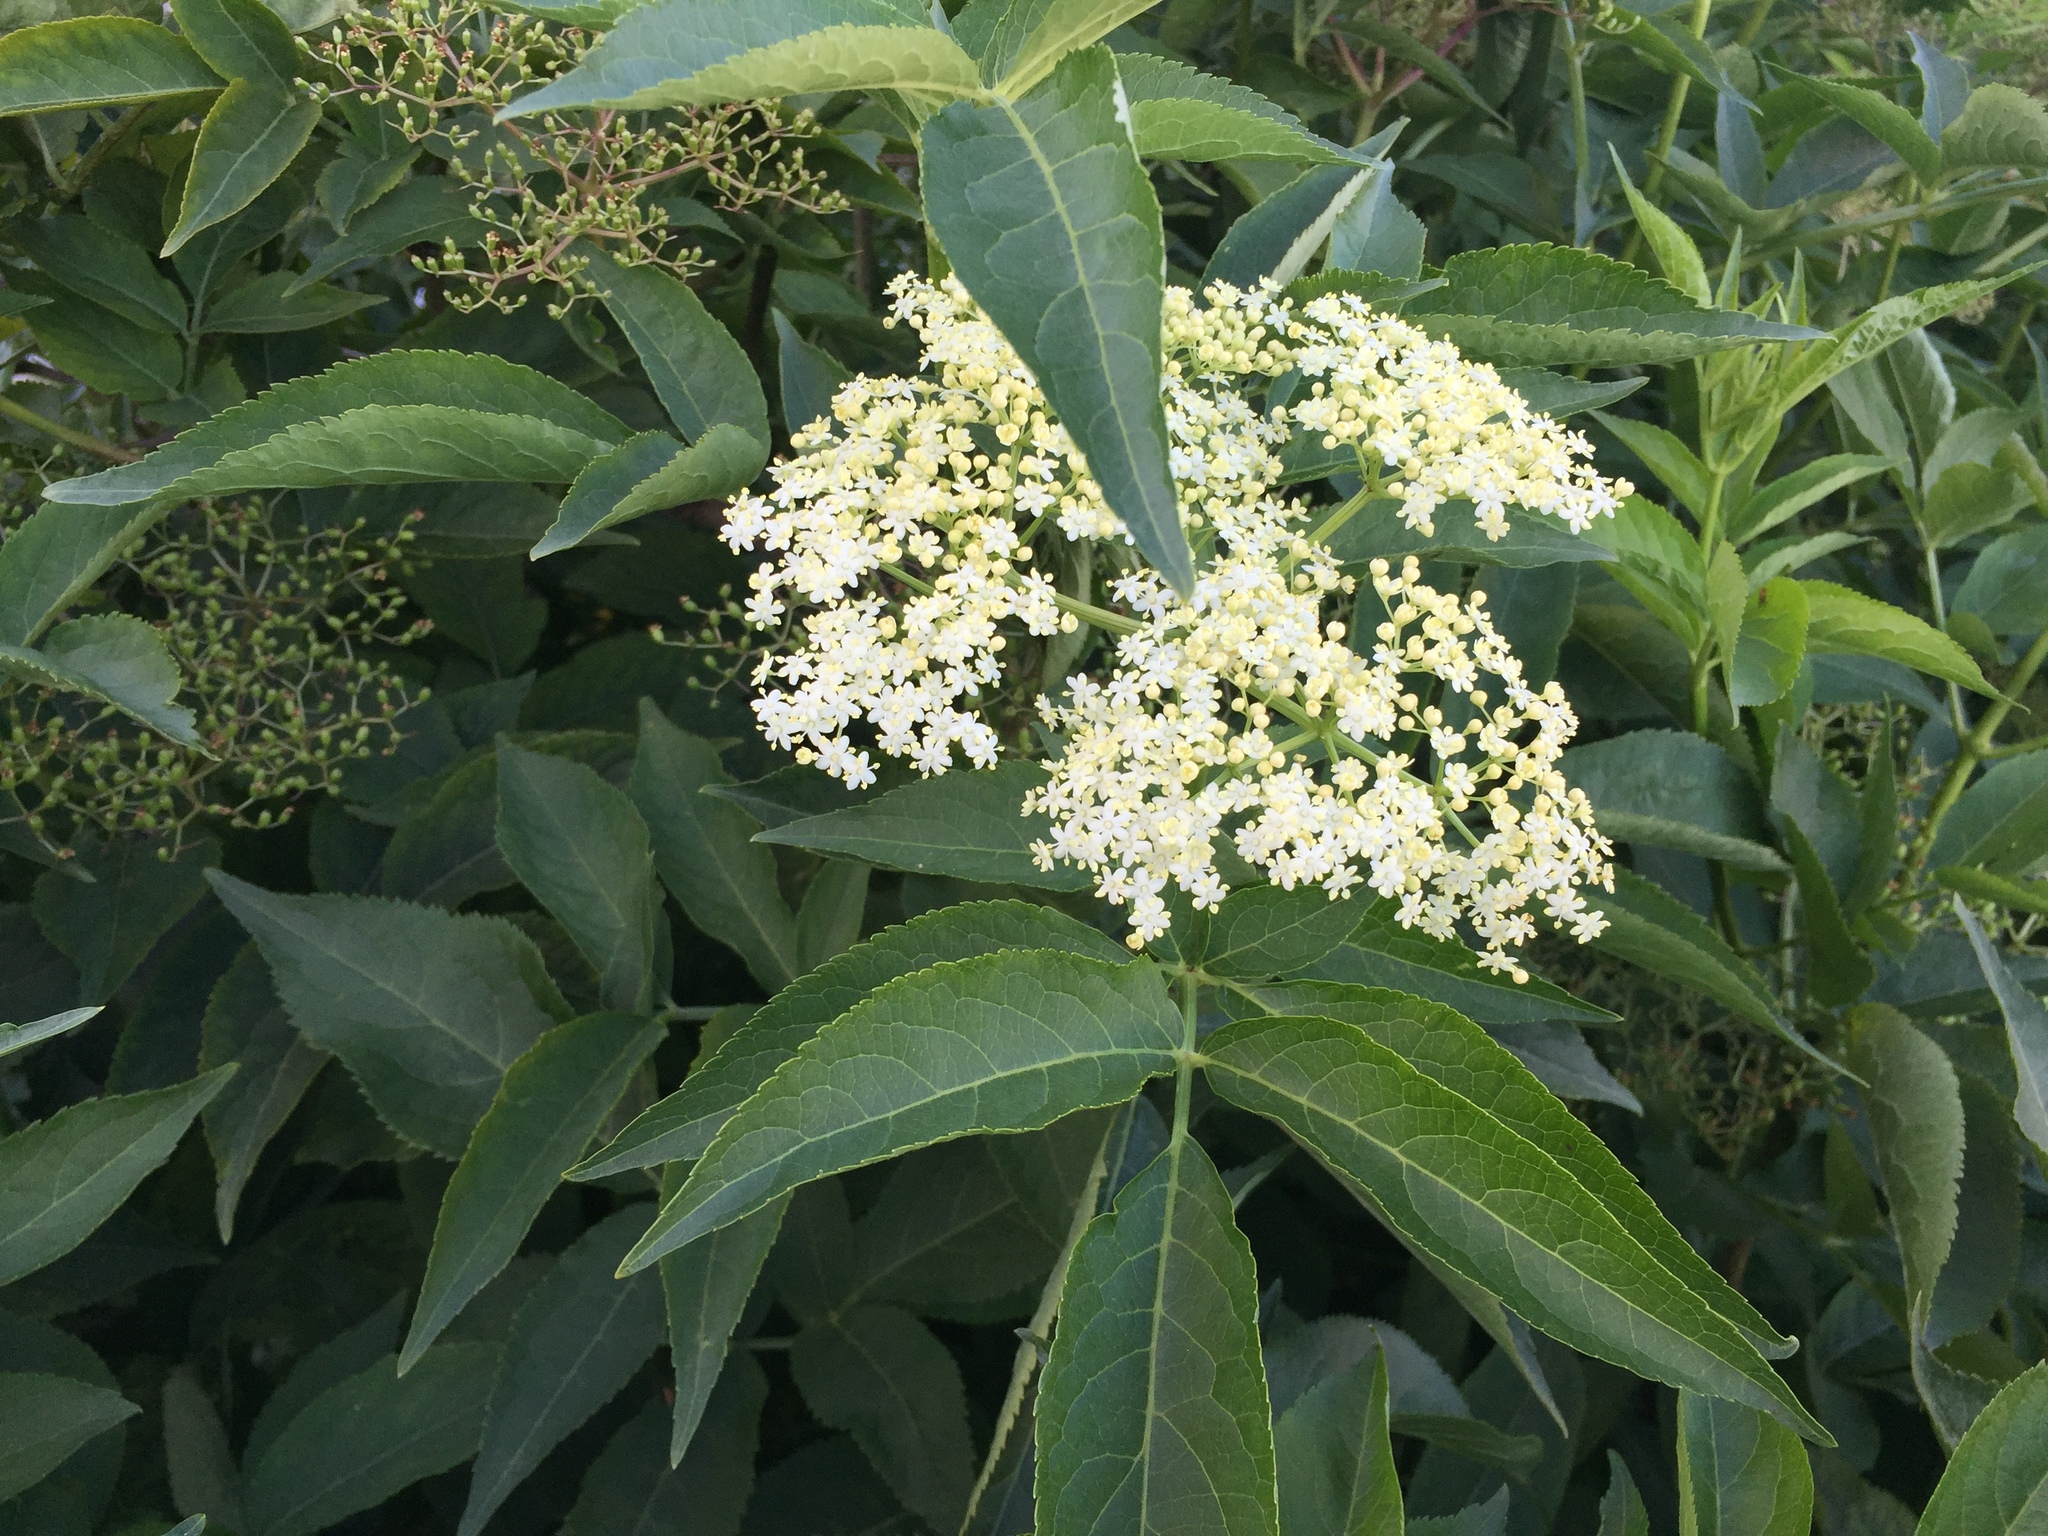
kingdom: Plantae
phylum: Tracheophyta
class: Magnoliopsida
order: Dipsacales
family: Viburnaceae
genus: Sambucus
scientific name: Sambucus nigra
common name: Elder
